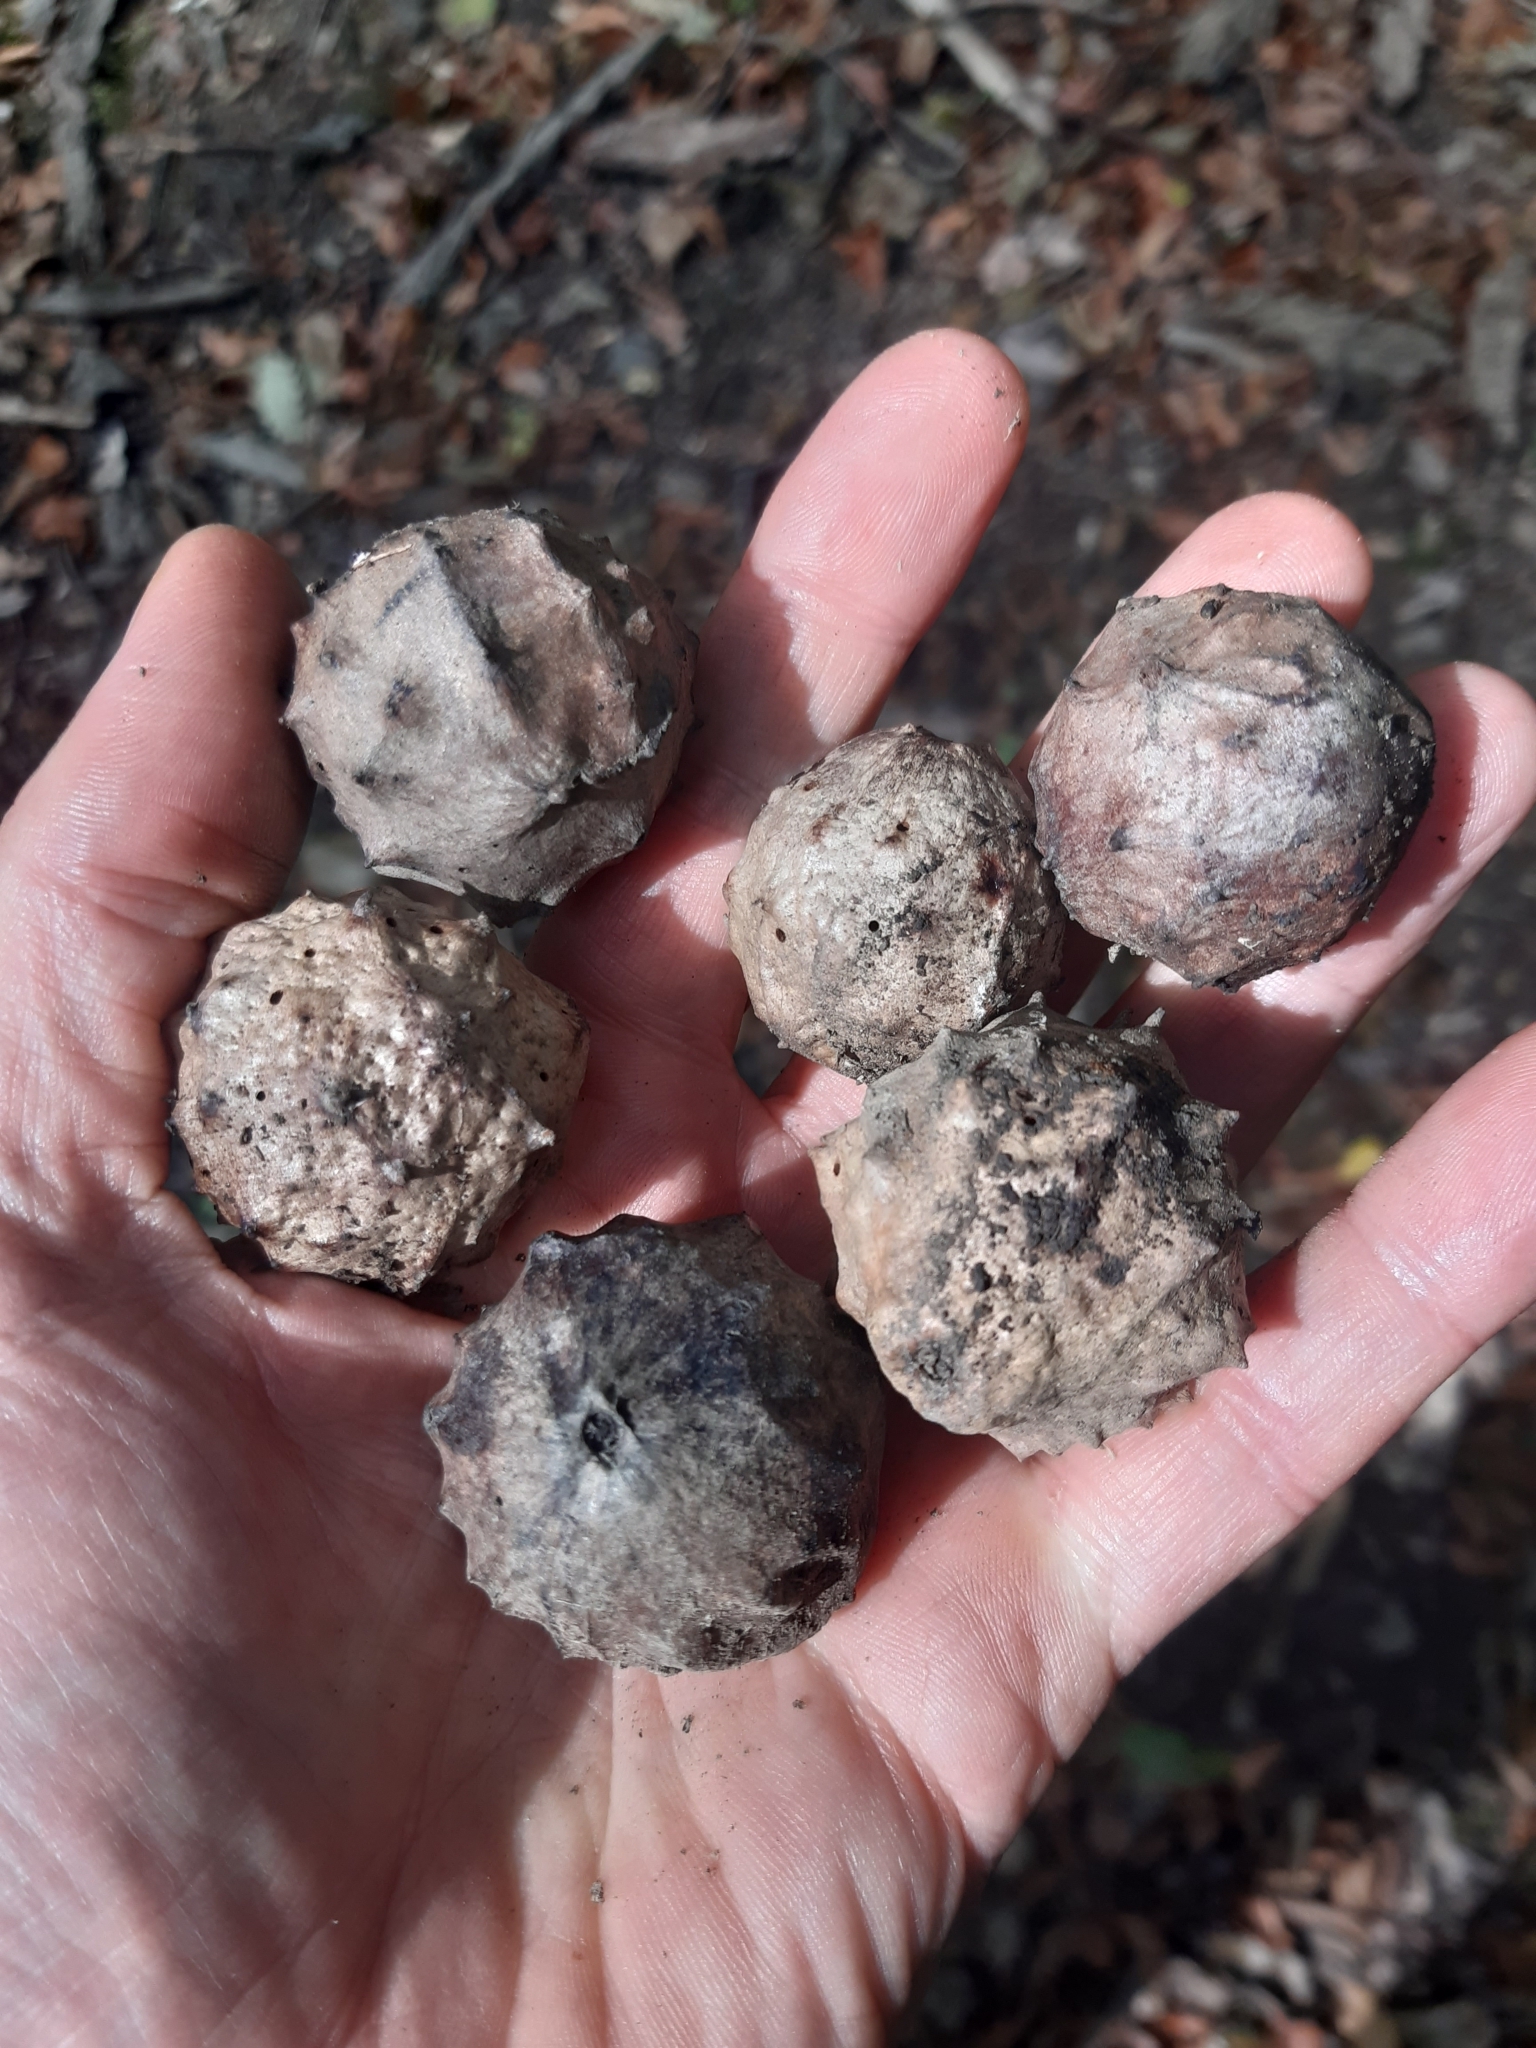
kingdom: Animalia
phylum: Arthropoda
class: Insecta
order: Hymenoptera
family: Cynipidae
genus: Andricus
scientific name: Andricus hungaricus
